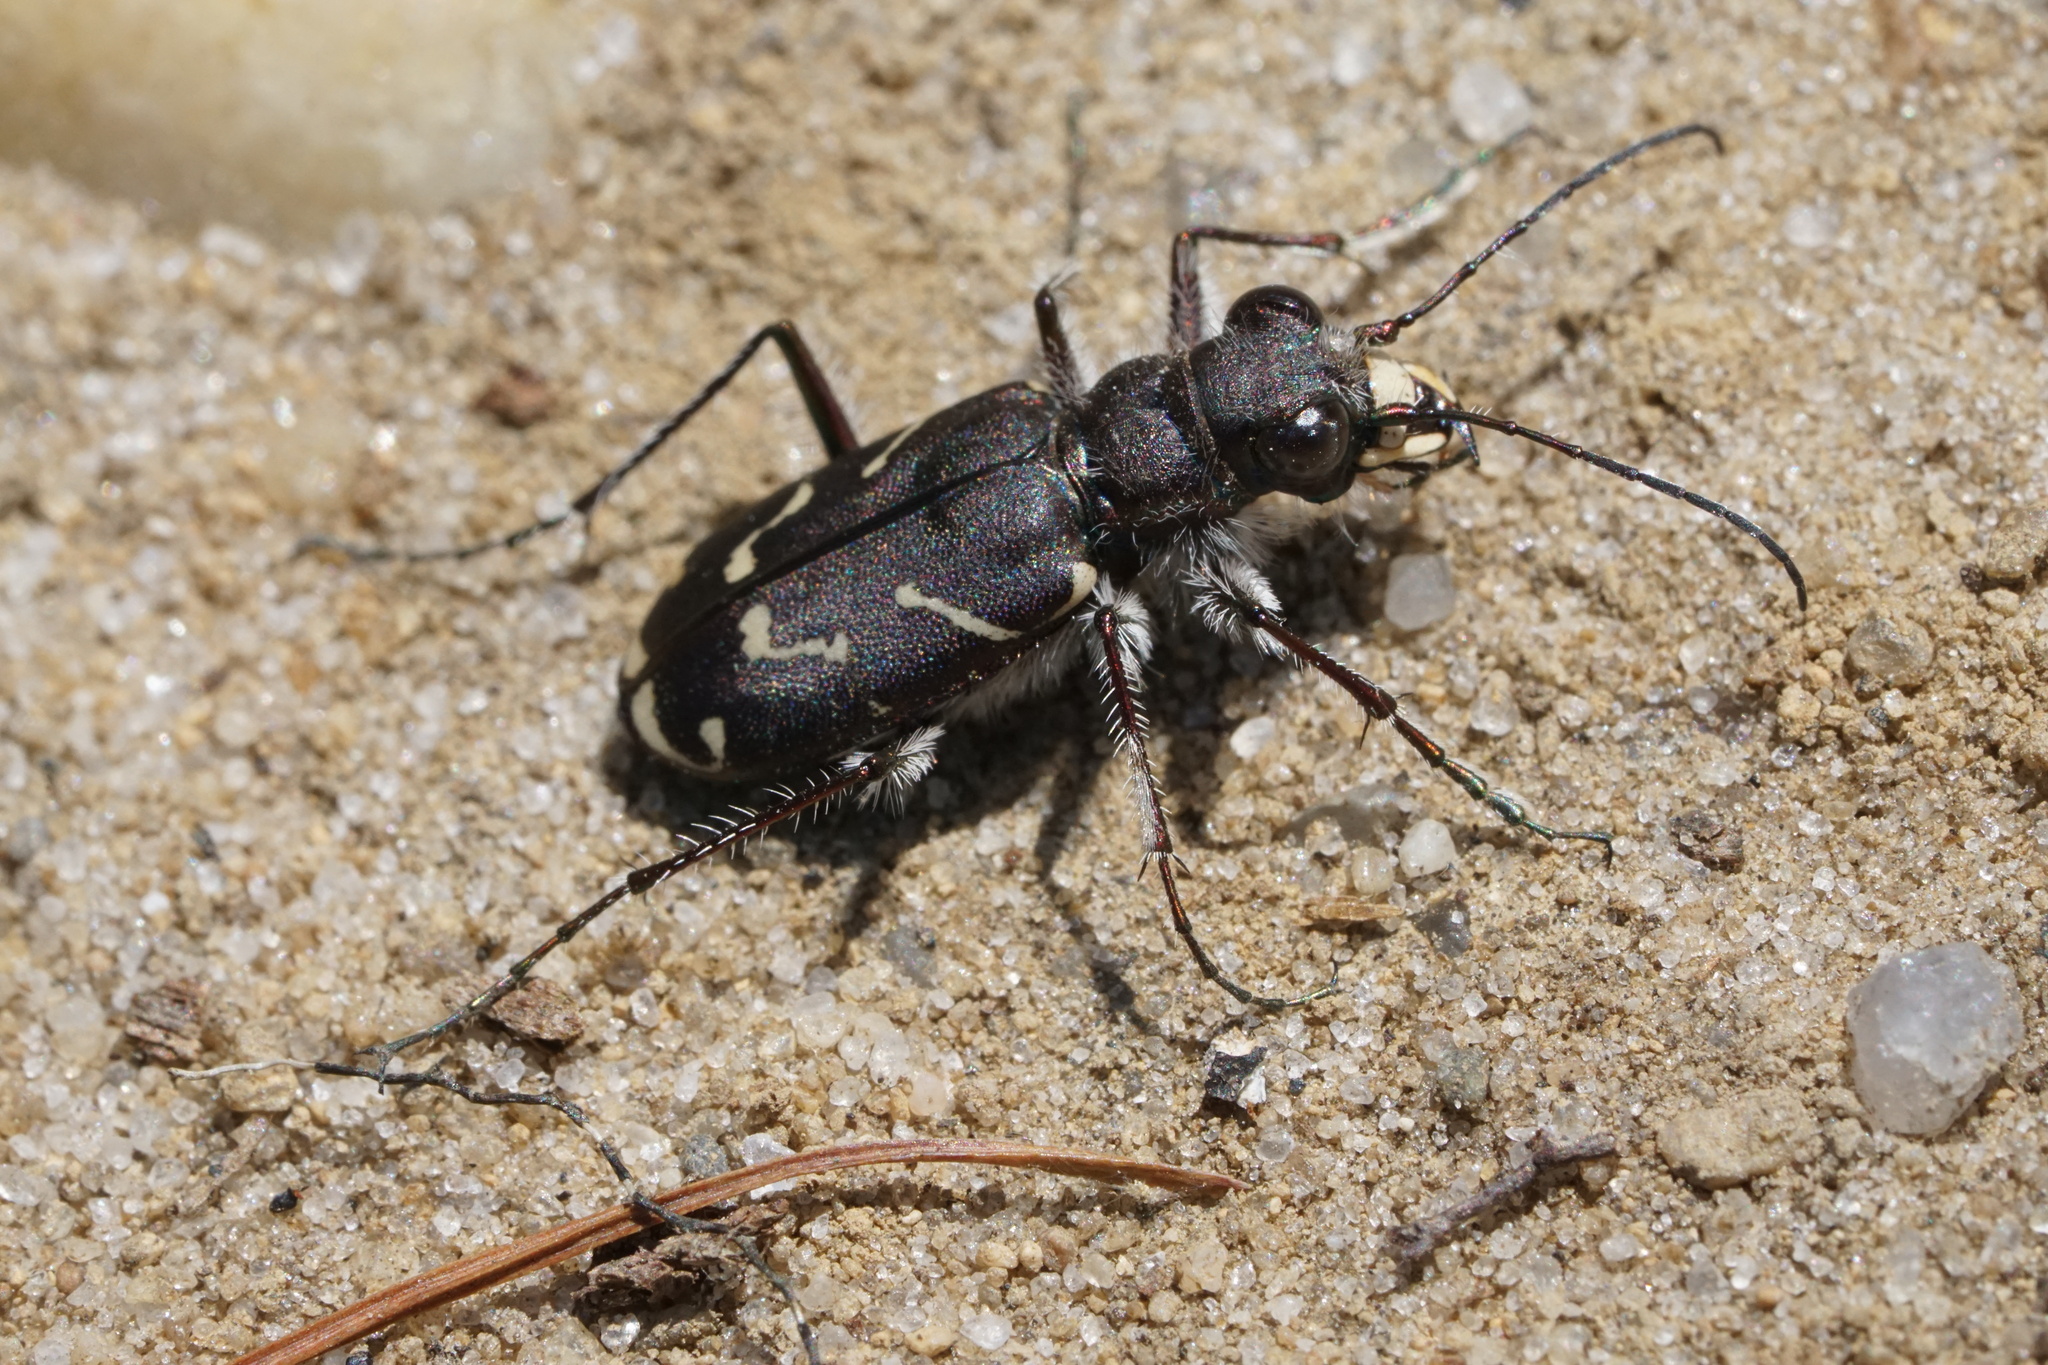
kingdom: Animalia
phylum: Arthropoda
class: Insecta
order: Coleoptera
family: Carabidae
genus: Cicindela
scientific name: Cicindela tranquebarica
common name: Oblique-lined tiger beetle
